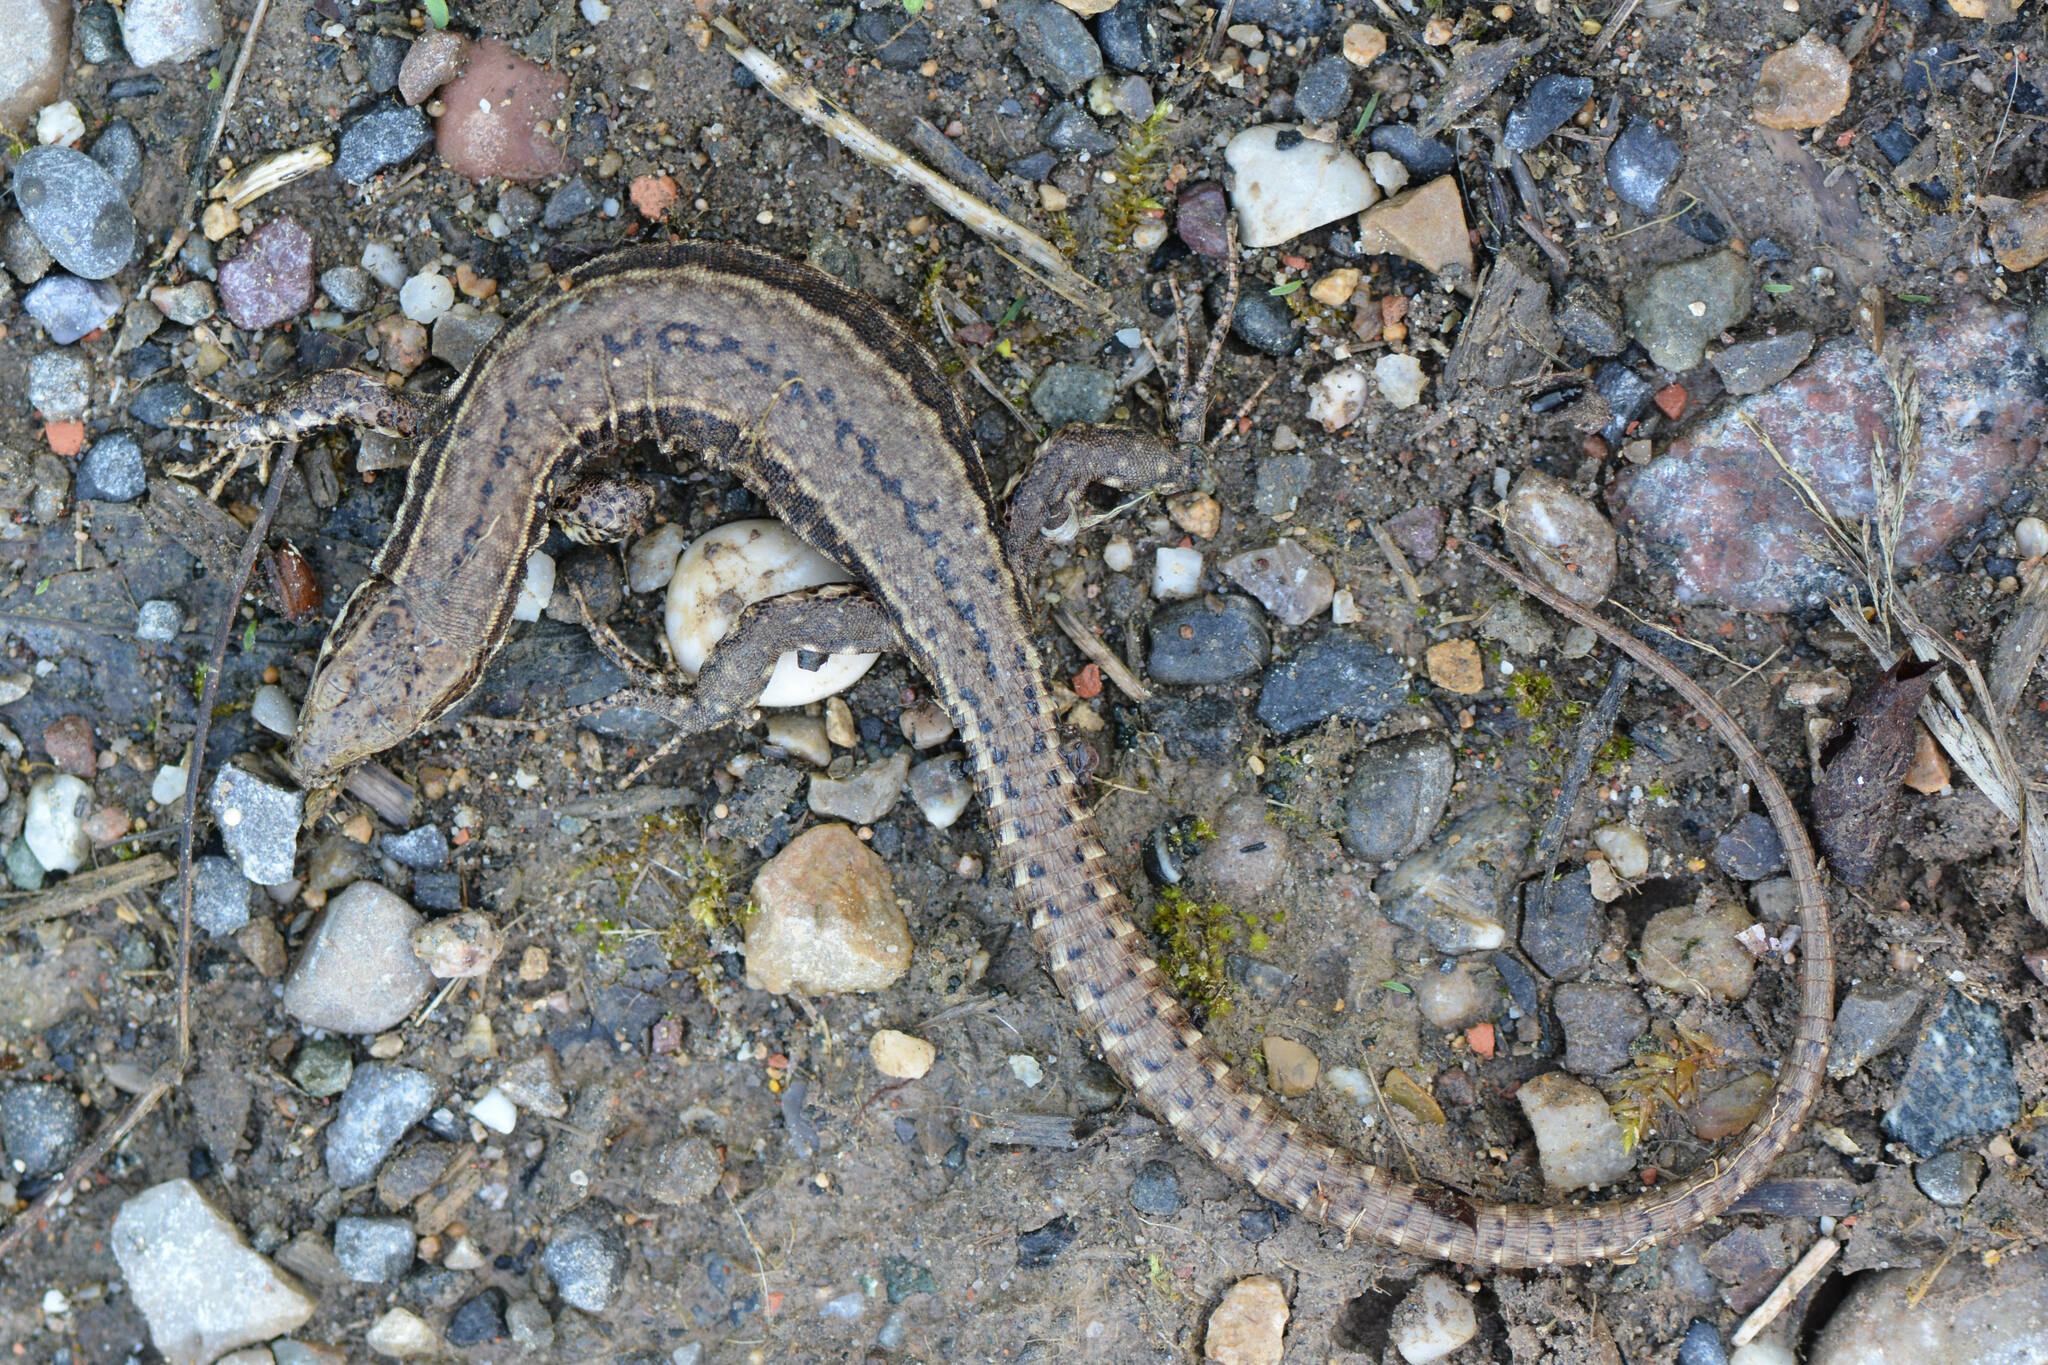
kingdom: Animalia
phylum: Chordata
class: Squamata
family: Lacertidae
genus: Podarcis
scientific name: Podarcis muralis
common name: Common wall lizard
